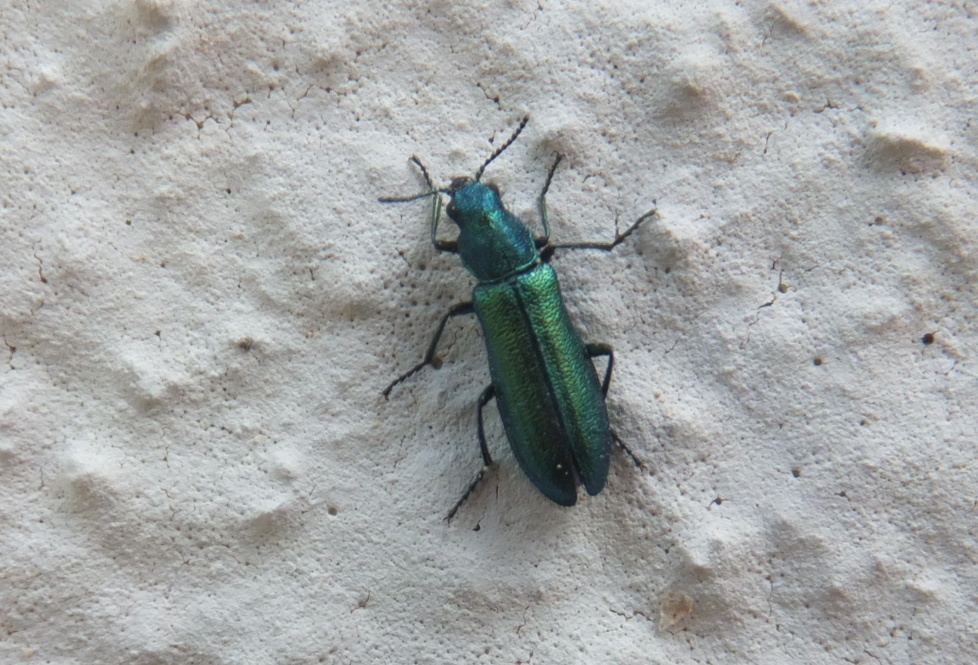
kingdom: Animalia
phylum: Arthropoda
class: Insecta
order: Coleoptera
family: Dasytidae
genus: Psilothrix
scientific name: Psilothrix viridicoerulea
